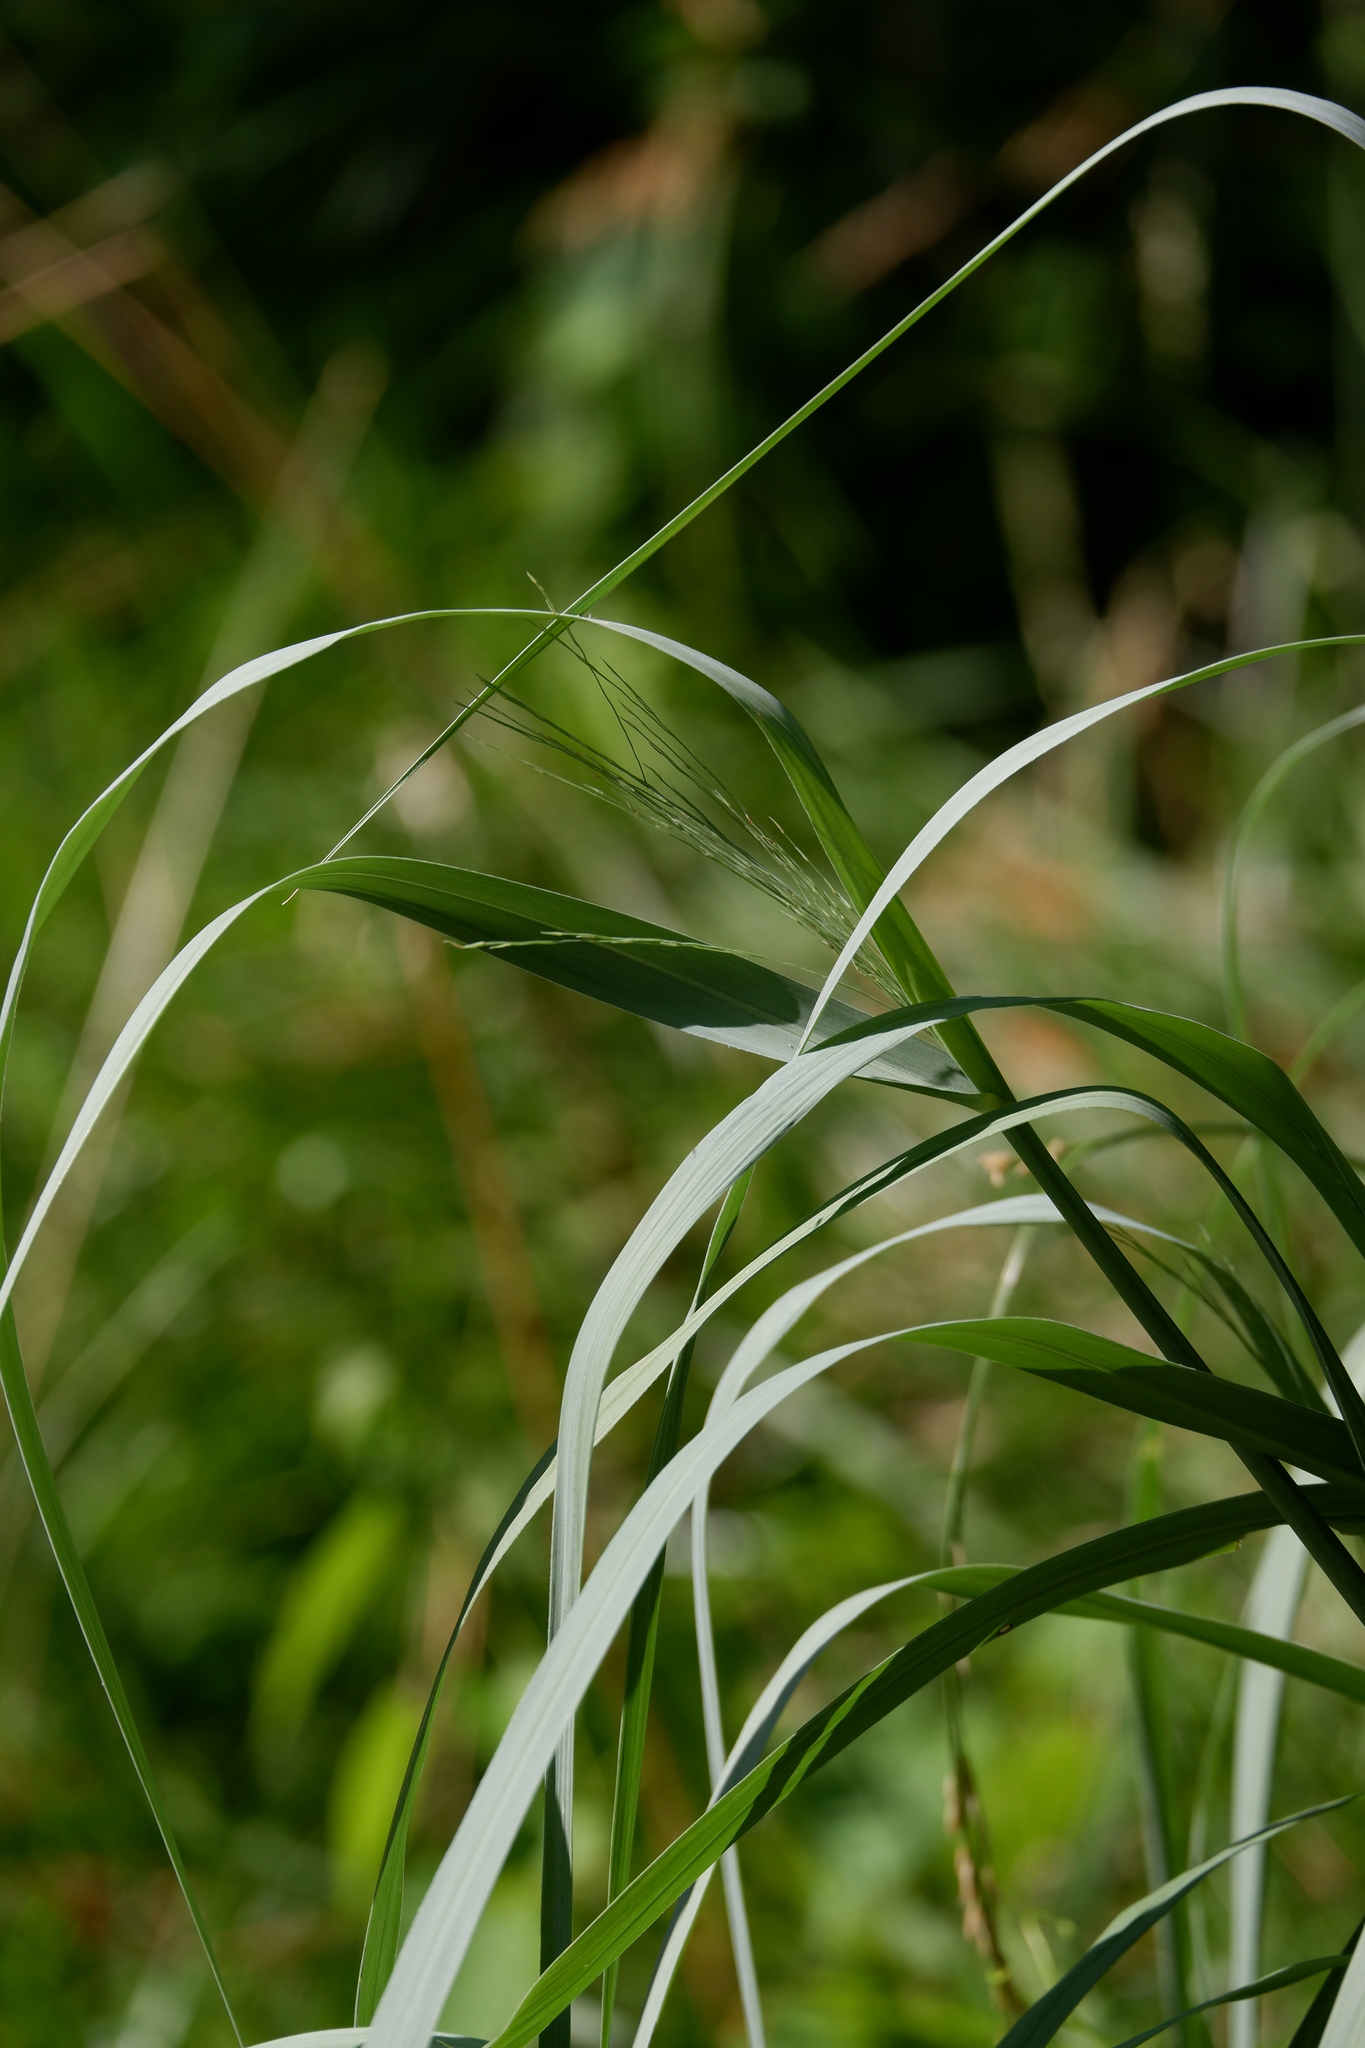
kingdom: Plantae
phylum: Tracheophyta
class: Liliopsida
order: Poales
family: Poaceae
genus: Panicum
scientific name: Panicum virgatum
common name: Switchgrass
